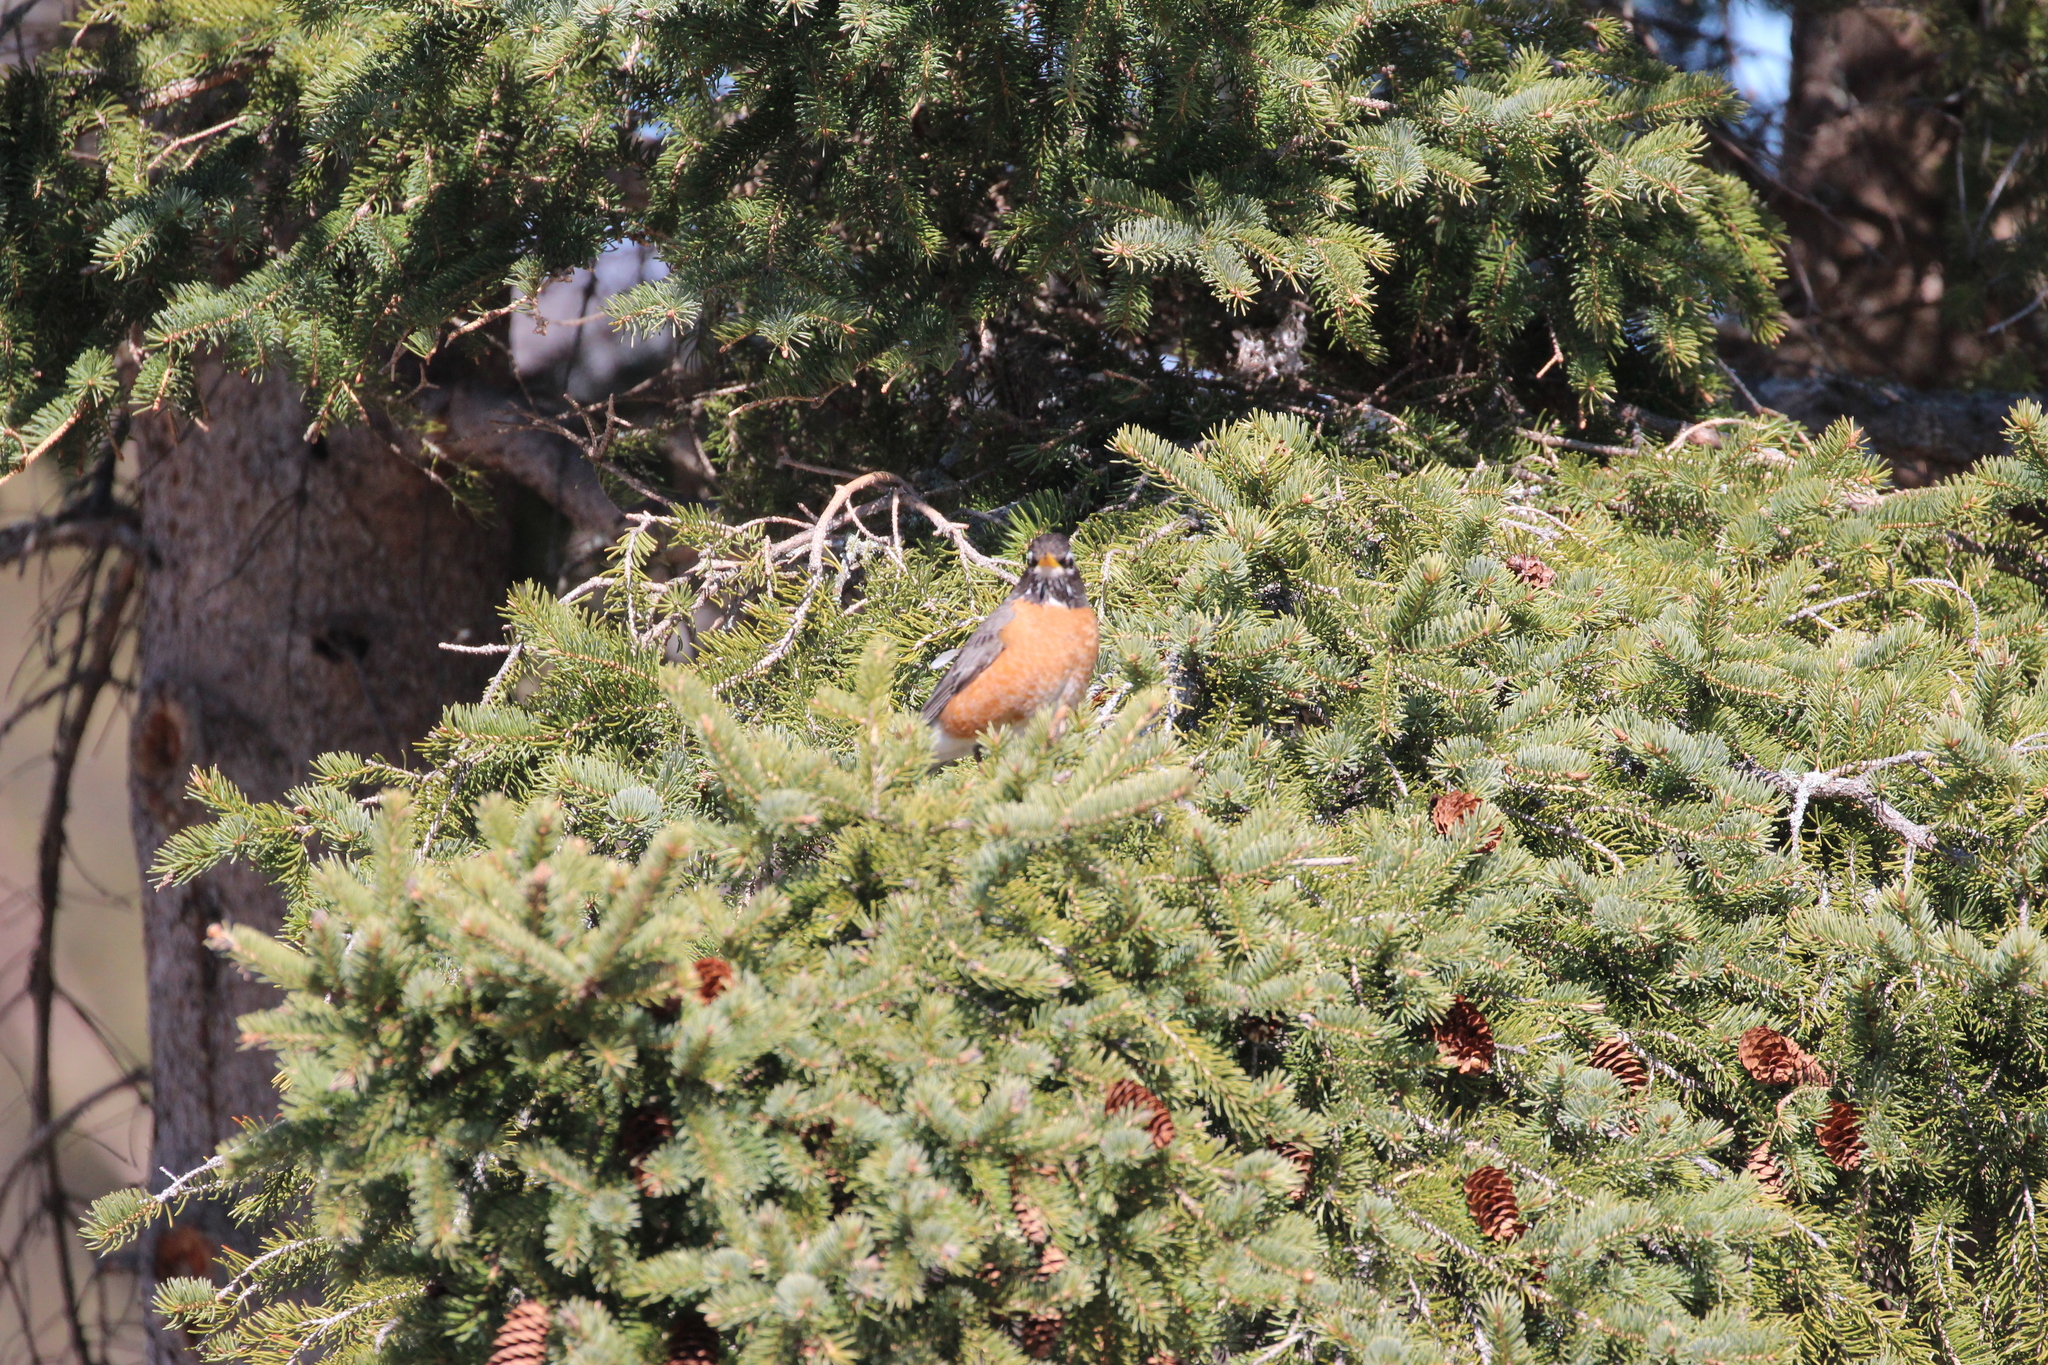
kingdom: Animalia
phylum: Chordata
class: Aves
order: Passeriformes
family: Turdidae
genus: Turdus
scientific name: Turdus migratorius
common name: American robin
